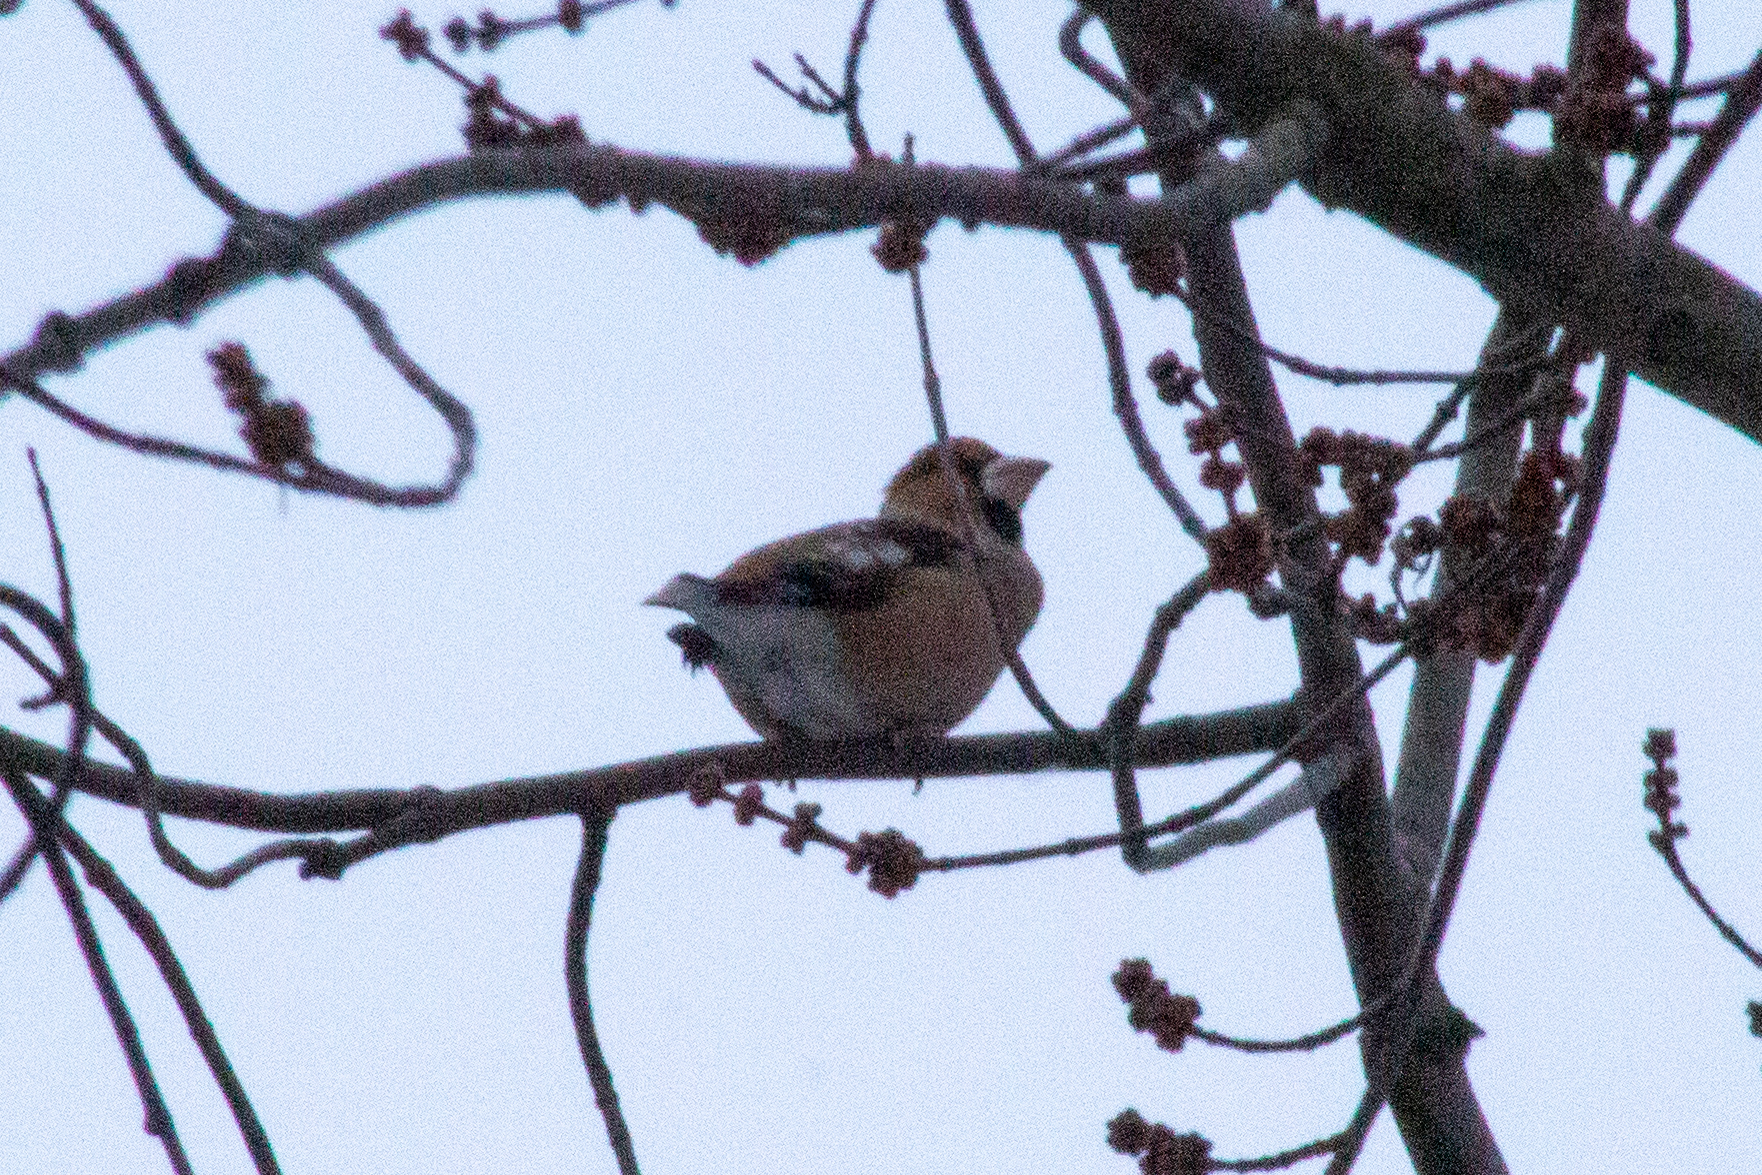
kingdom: Animalia
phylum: Chordata
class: Aves
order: Passeriformes
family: Fringillidae
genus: Coccothraustes
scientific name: Coccothraustes coccothraustes
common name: Hawfinch
